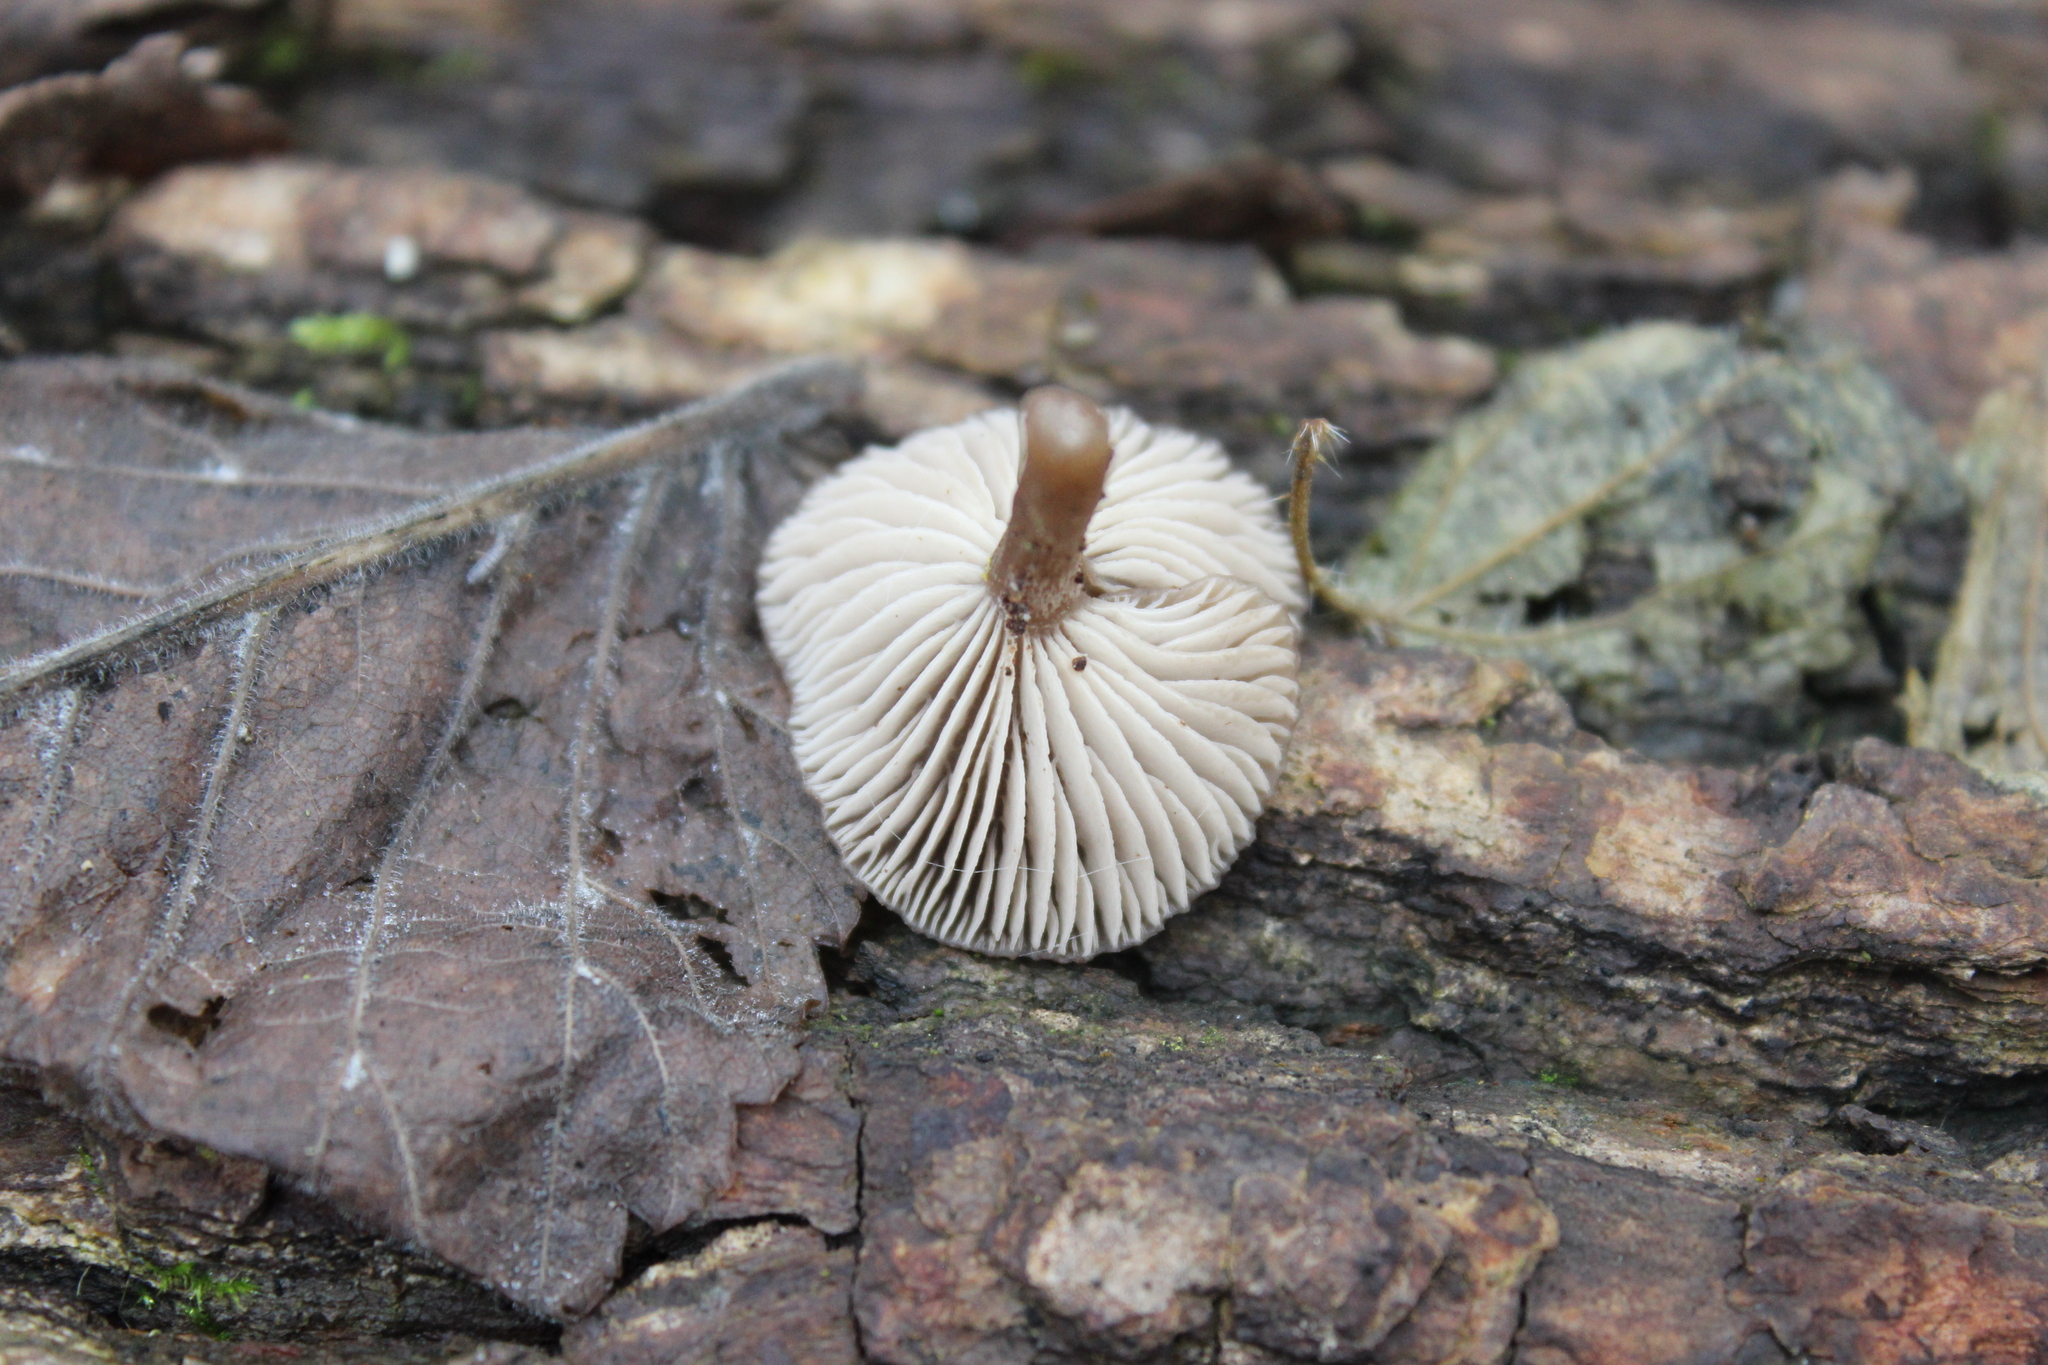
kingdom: Fungi
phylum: Basidiomycota
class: Agaricomycetes
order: Agaricales
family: Pseudoclitocybaceae
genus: Pseudoclitocybe
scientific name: Pseudoclitocybe cyathiformis
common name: Goblet
